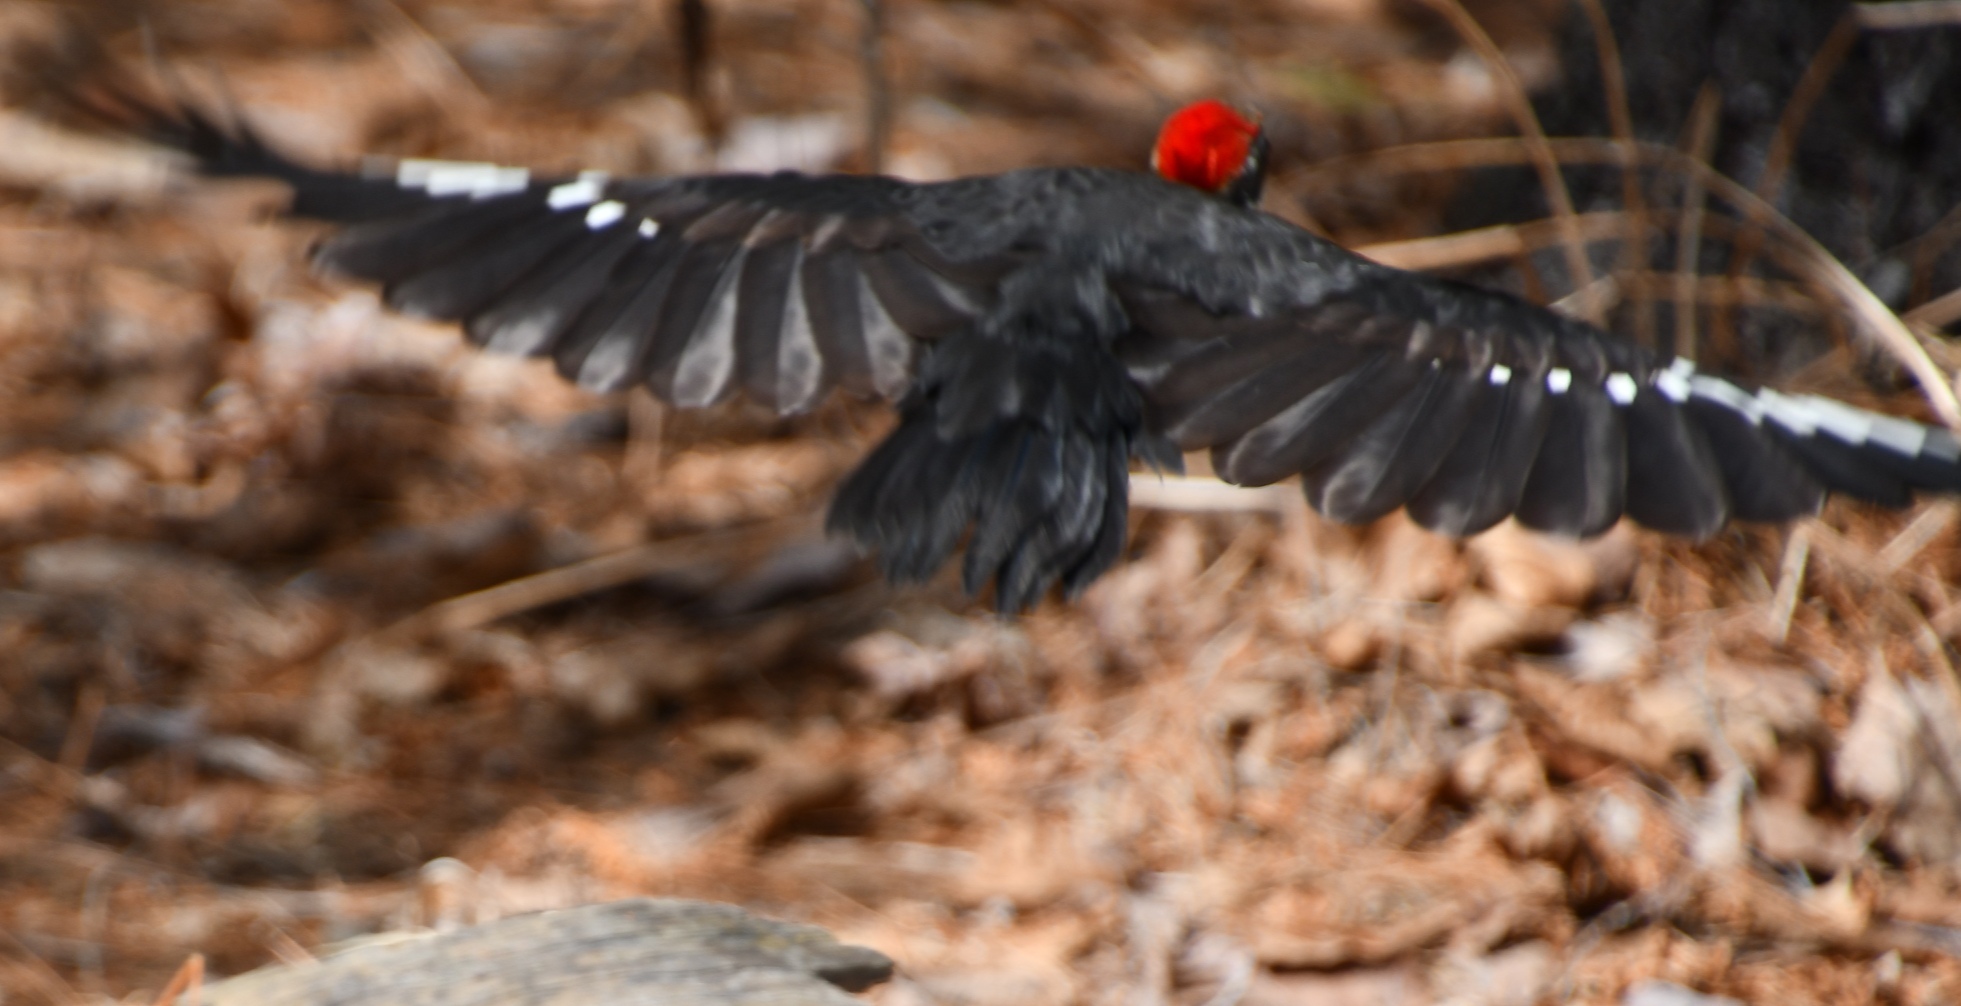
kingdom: Animalia
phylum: Chordata
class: Aves
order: Piciformes
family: Picidae
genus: Dryocopus
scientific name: Dryocopus pileatus
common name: Pileated woodpecker
